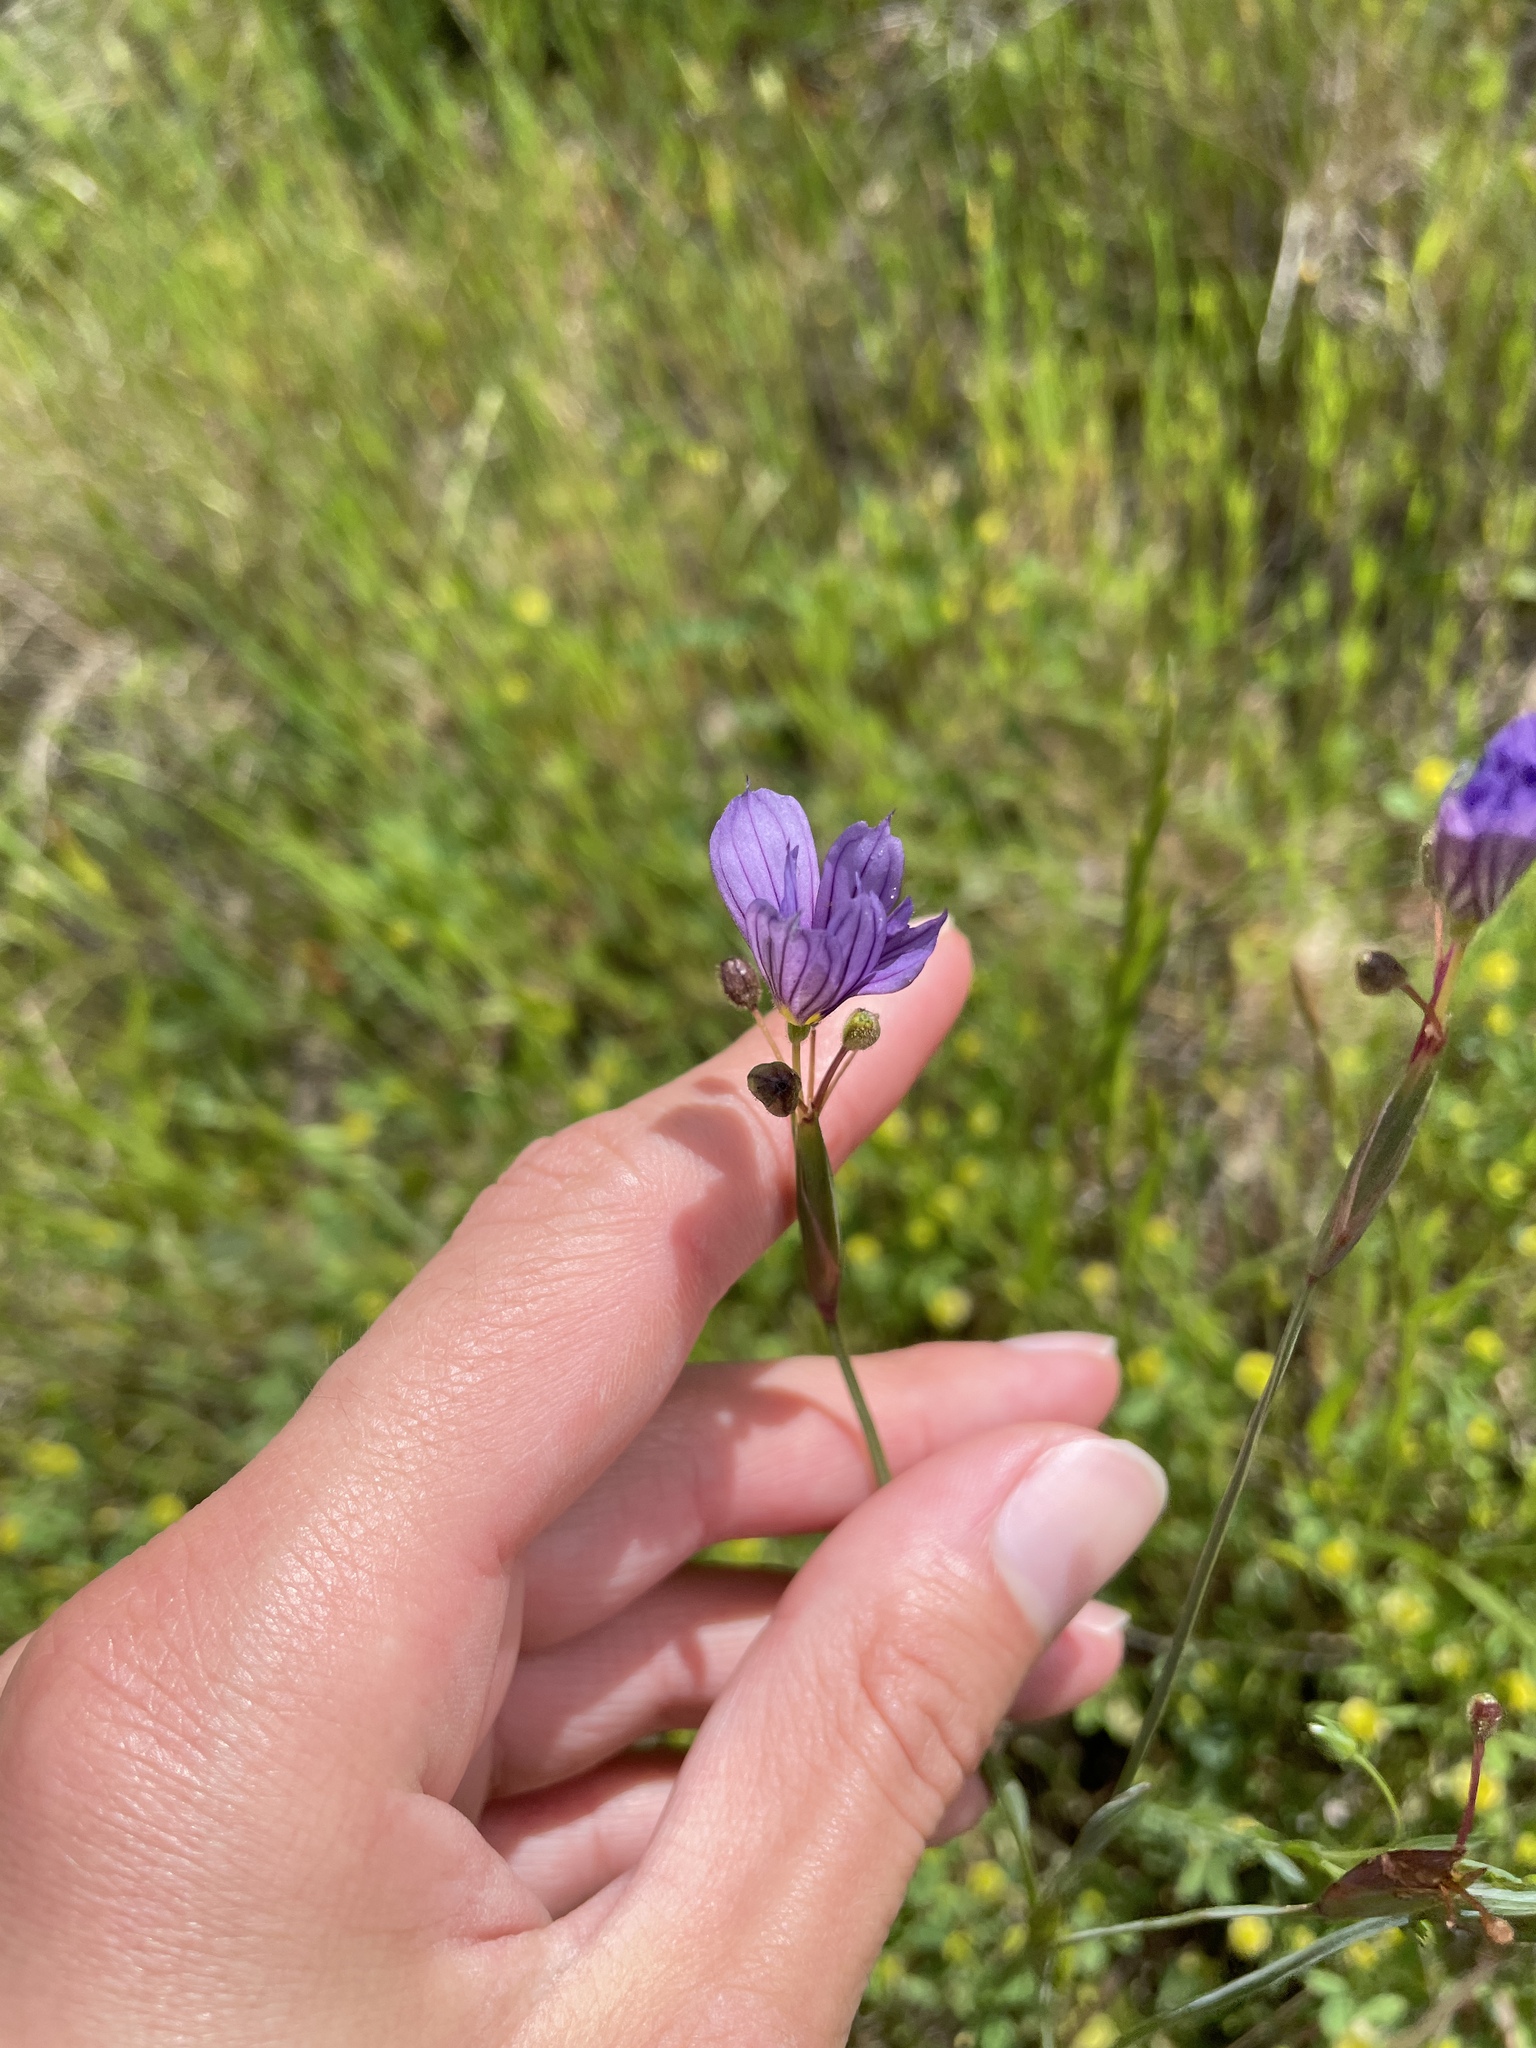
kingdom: Plantae
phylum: Tracheophyta
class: Liliopsida
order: Asparagales
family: Iridaceae
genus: Sisyrinchium
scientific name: Sisyrinchium bellum
